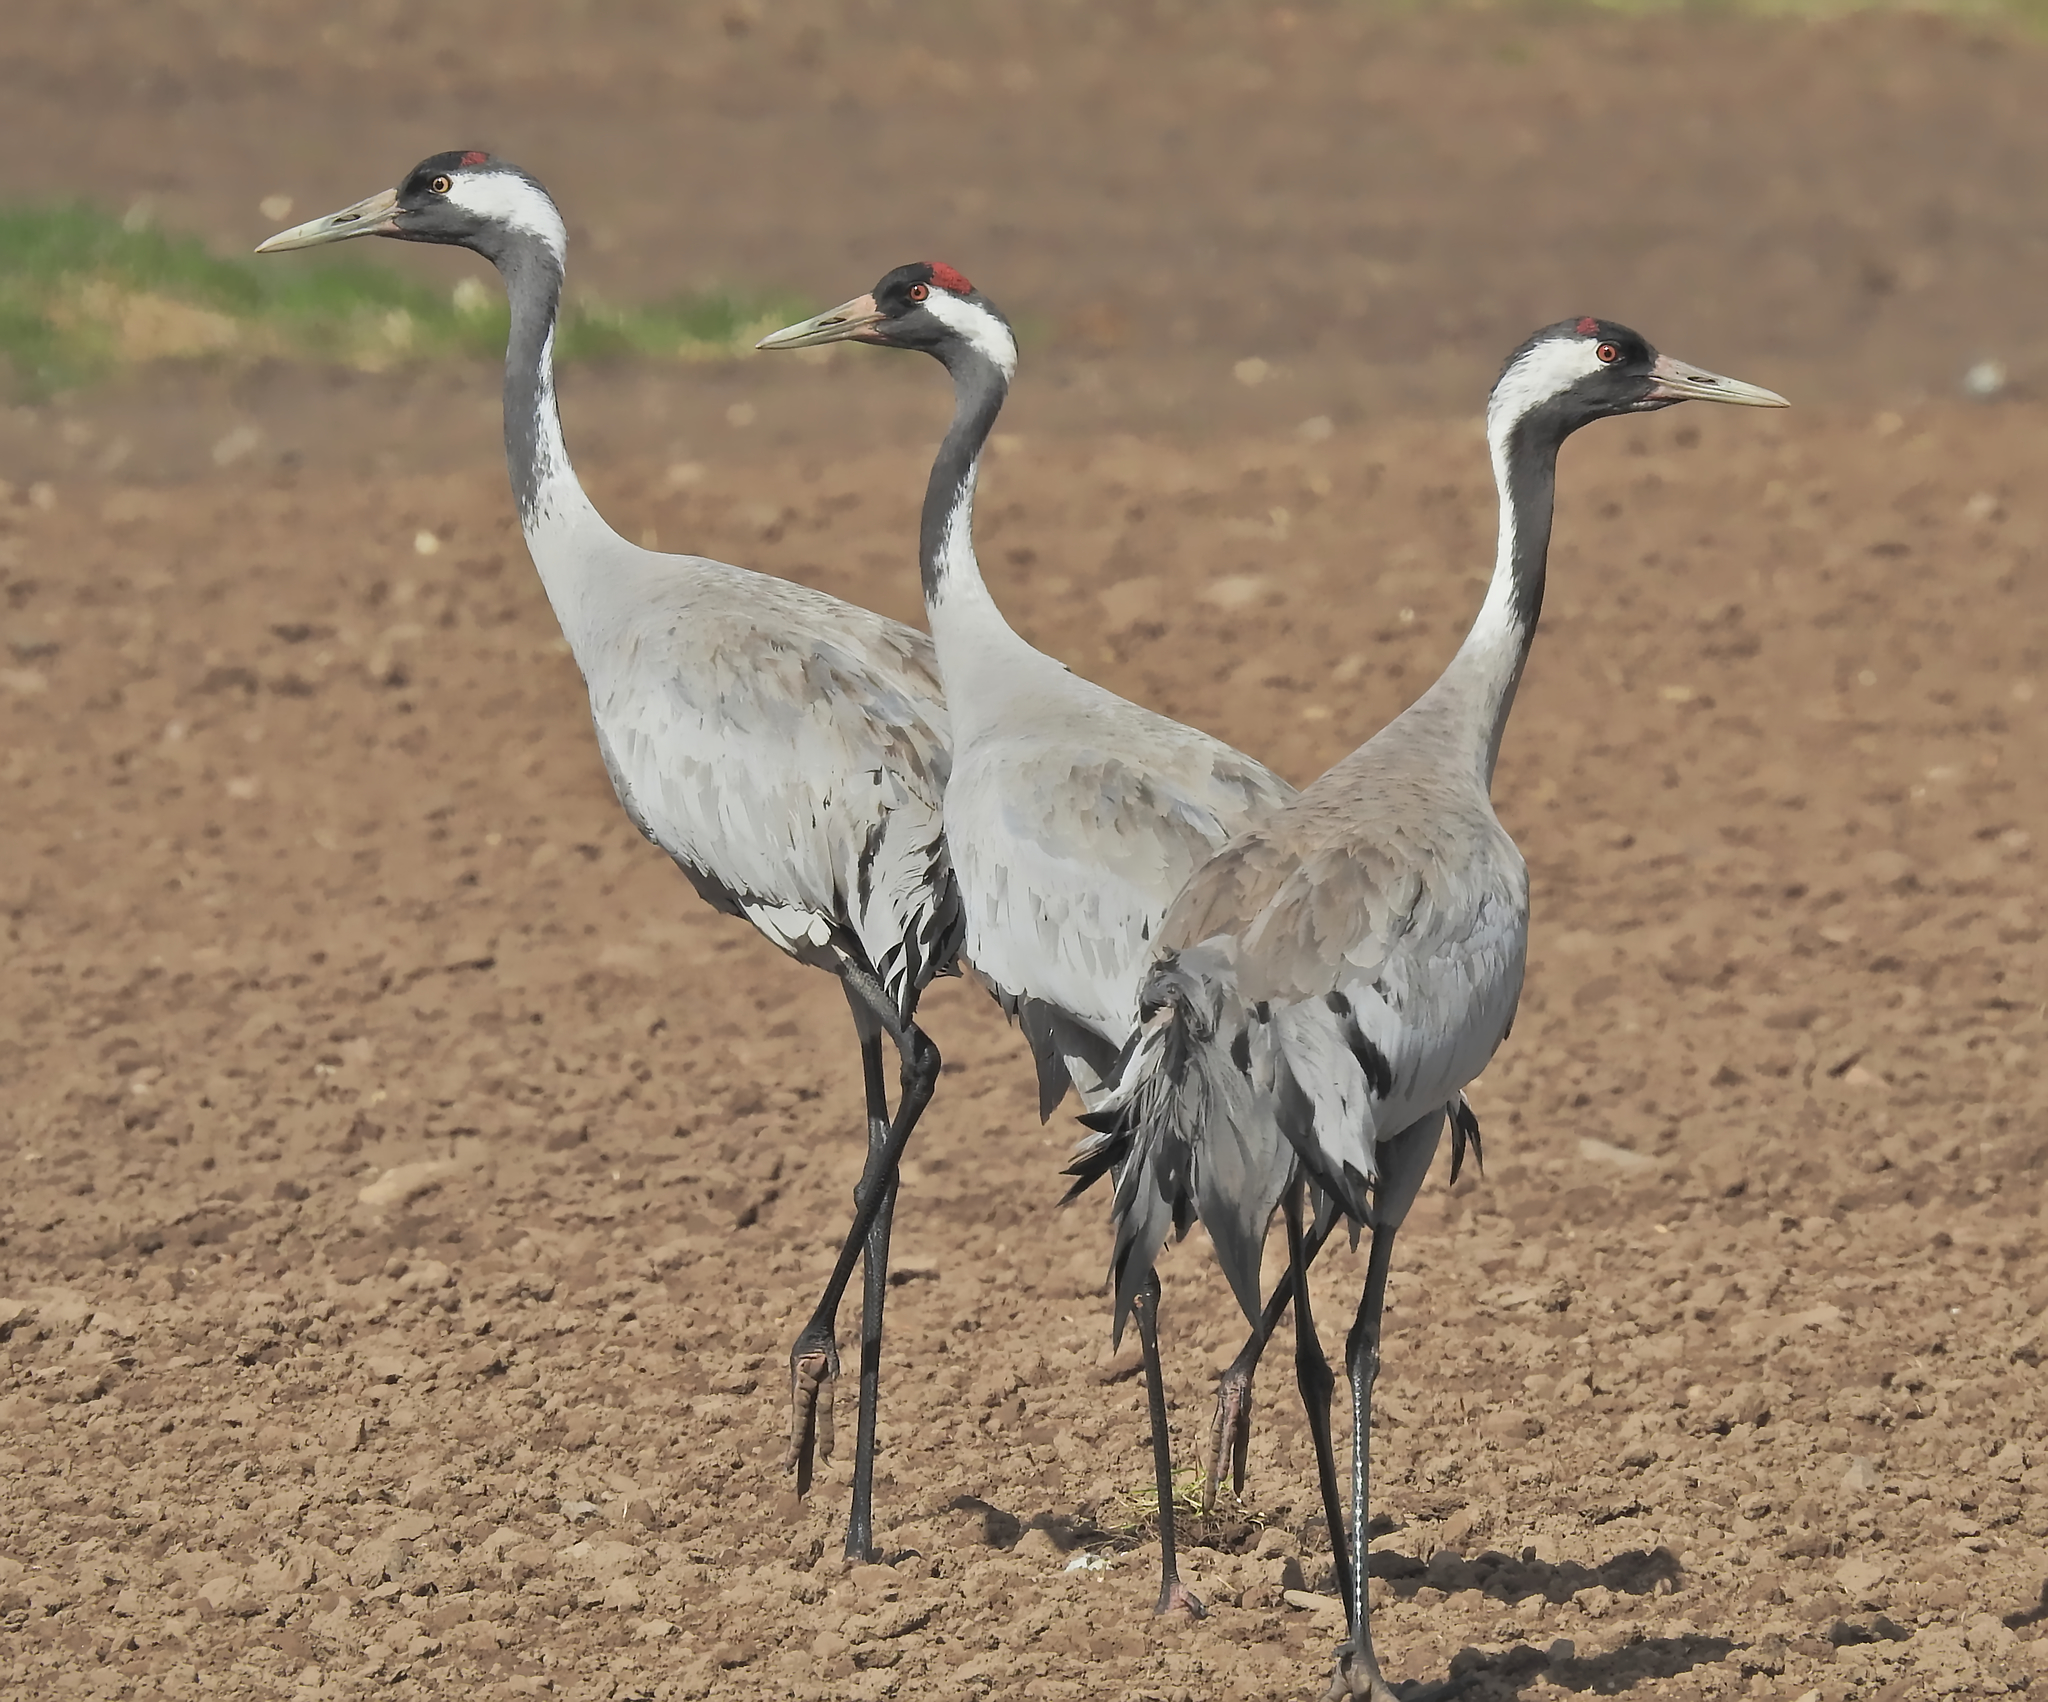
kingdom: Animalia
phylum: Chordata
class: Aves
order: Gruiformes
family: Gruidae
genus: Grus
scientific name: Grus grus
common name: Common crane
